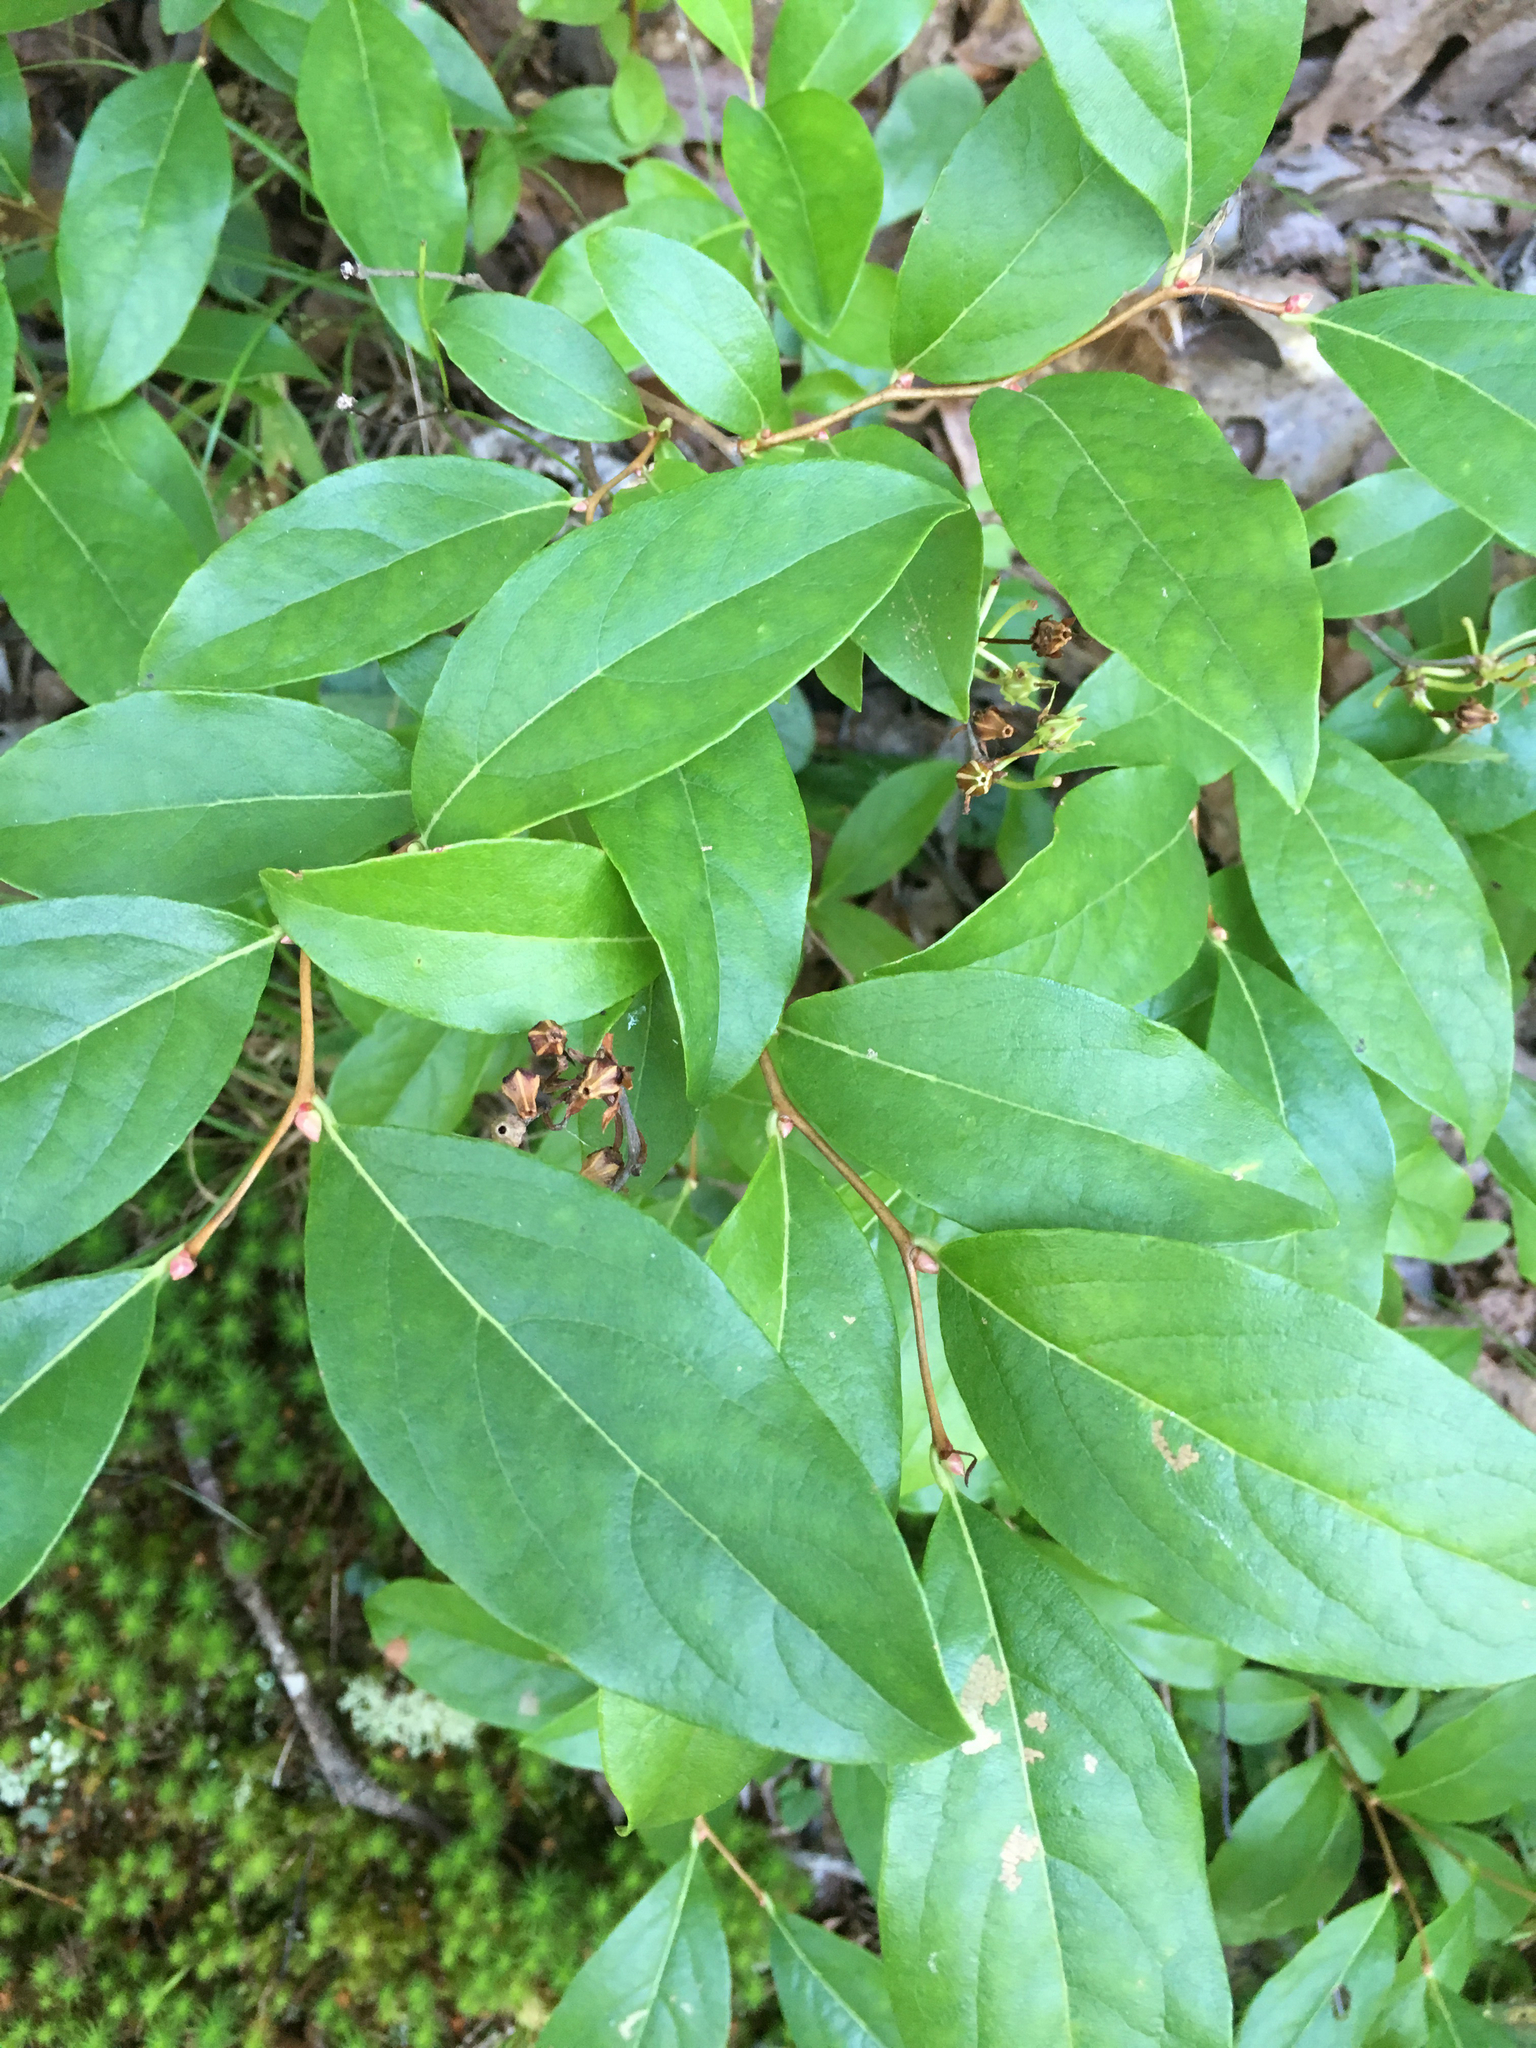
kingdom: Plantae
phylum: Tracheophyta
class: Magnoliopsida
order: Ericales
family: Ericaceae
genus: Lyonia
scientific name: Lyonia mariana
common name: Staggerbush
